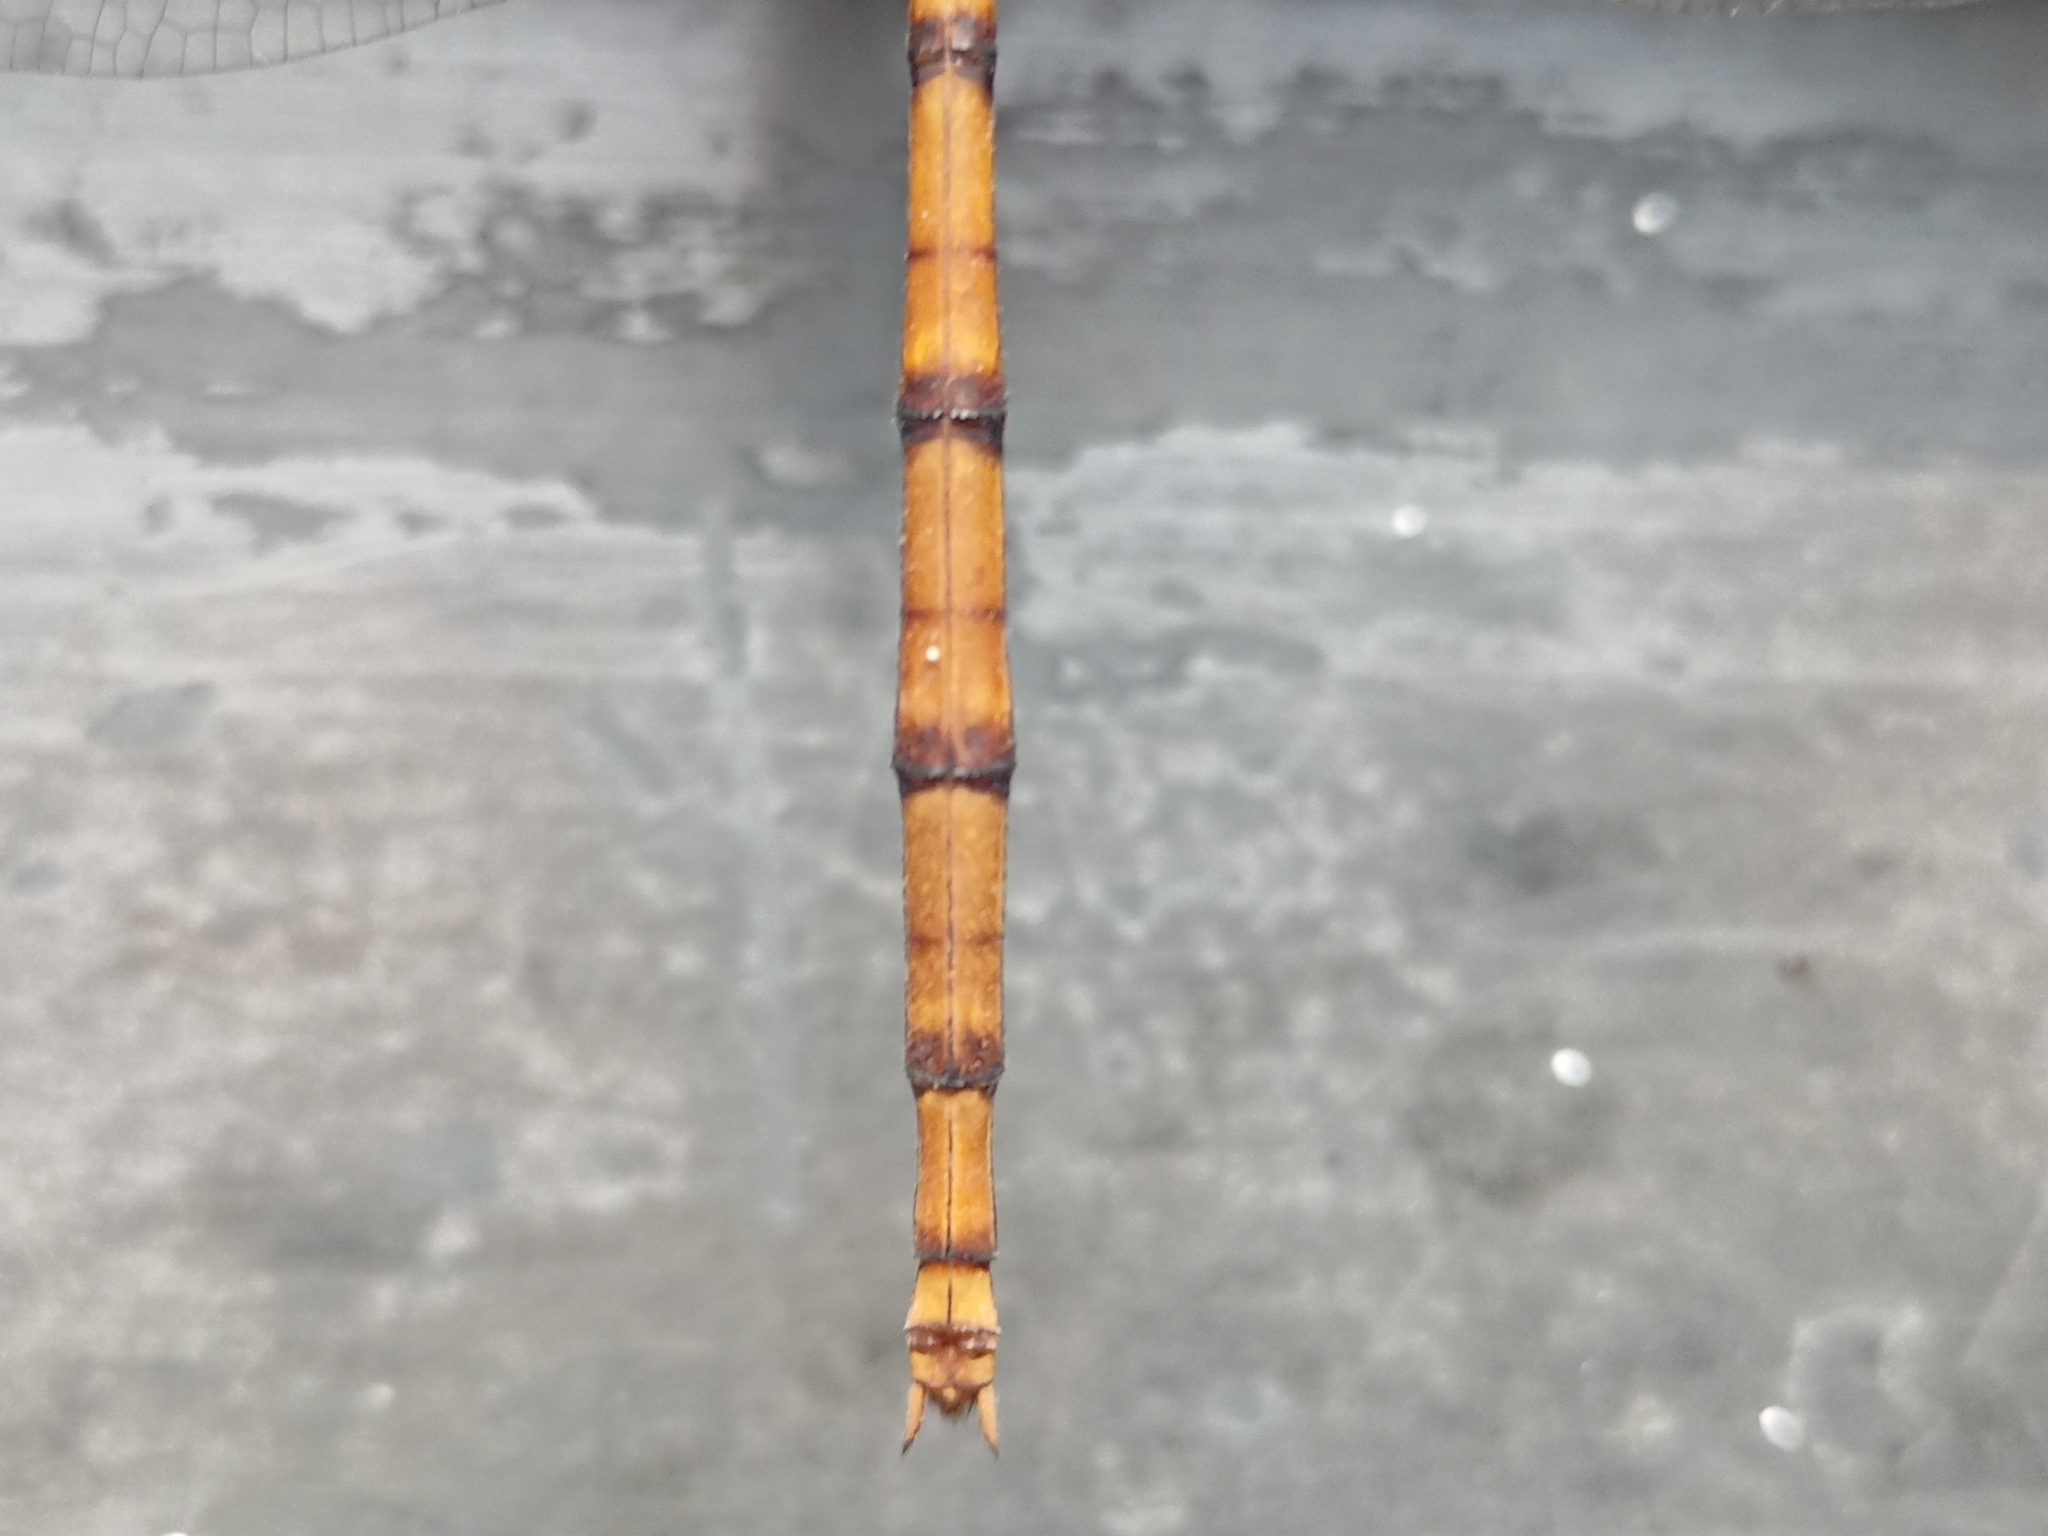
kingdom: Animalia
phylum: Arthropoda
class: Insecta
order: Odonata
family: Libellulidae
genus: Zyxomma
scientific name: Zyxomma petiolatum
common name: Dingy dusk-darter
